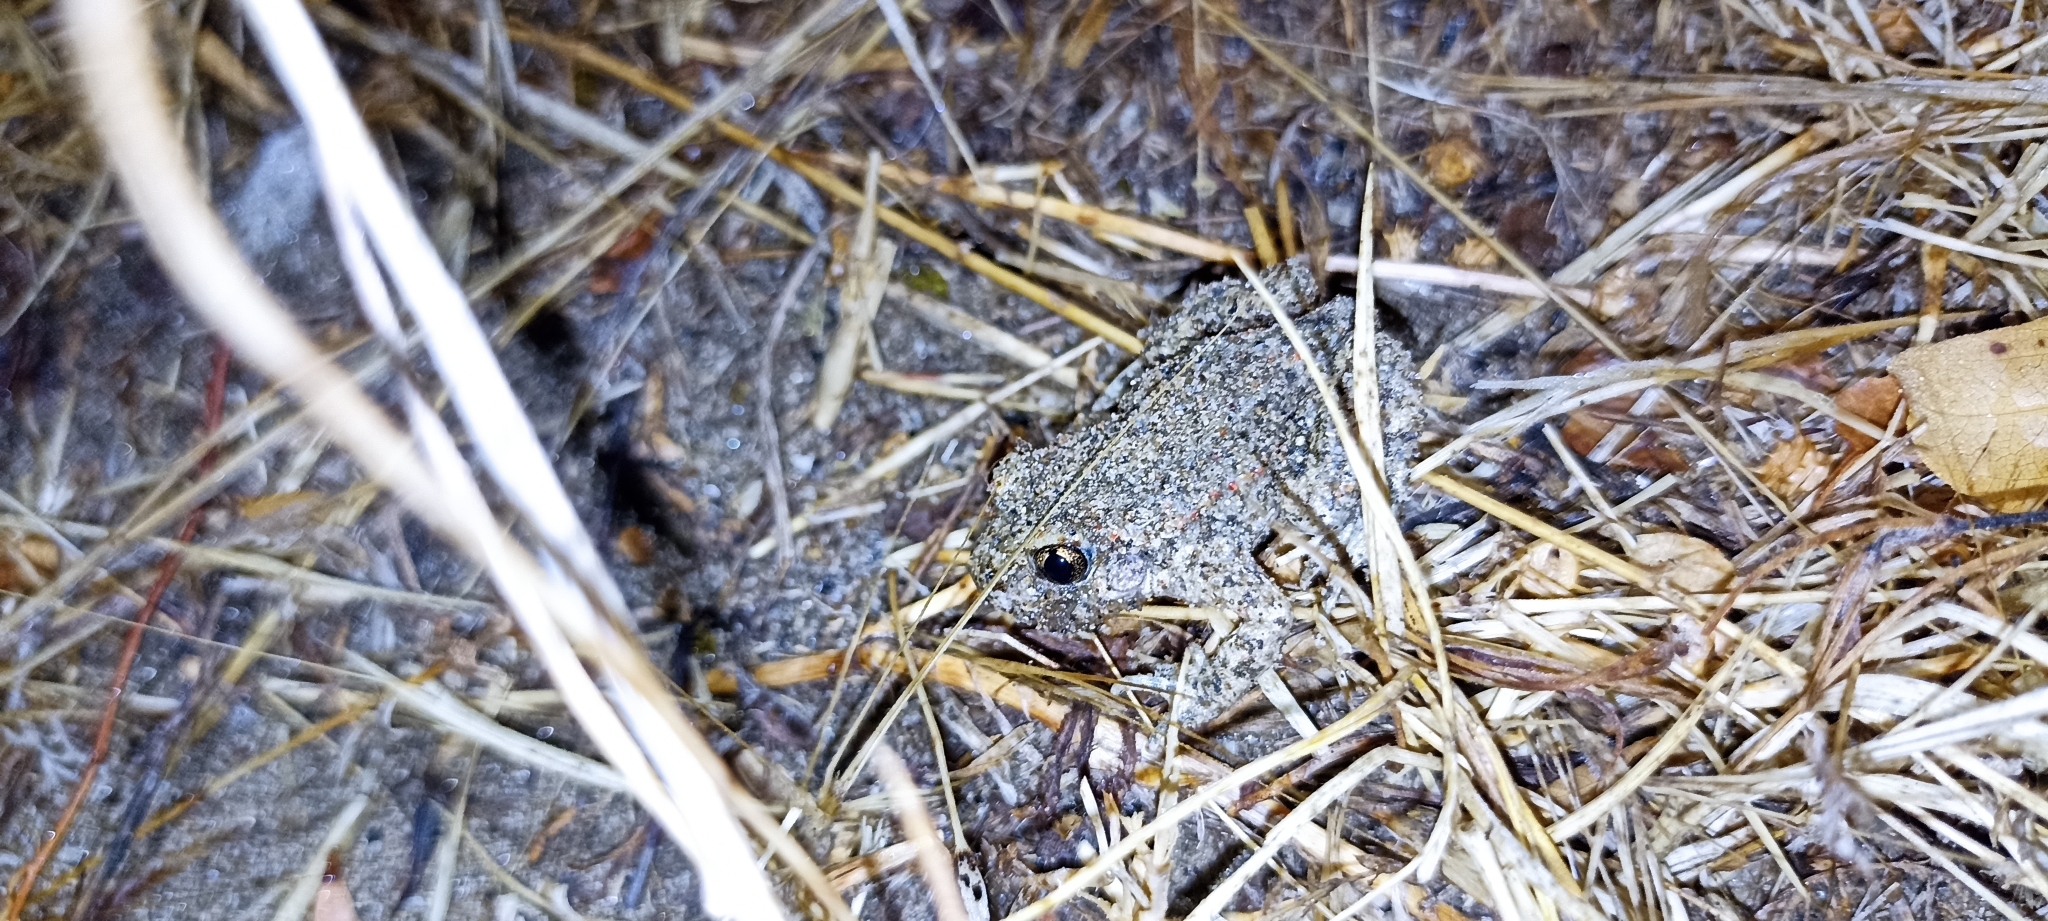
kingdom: Animalia
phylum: Chordata
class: Amphibia
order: Anura
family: Alytidae
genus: Alytes
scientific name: Alytes obstetricans
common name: Midwife toad
